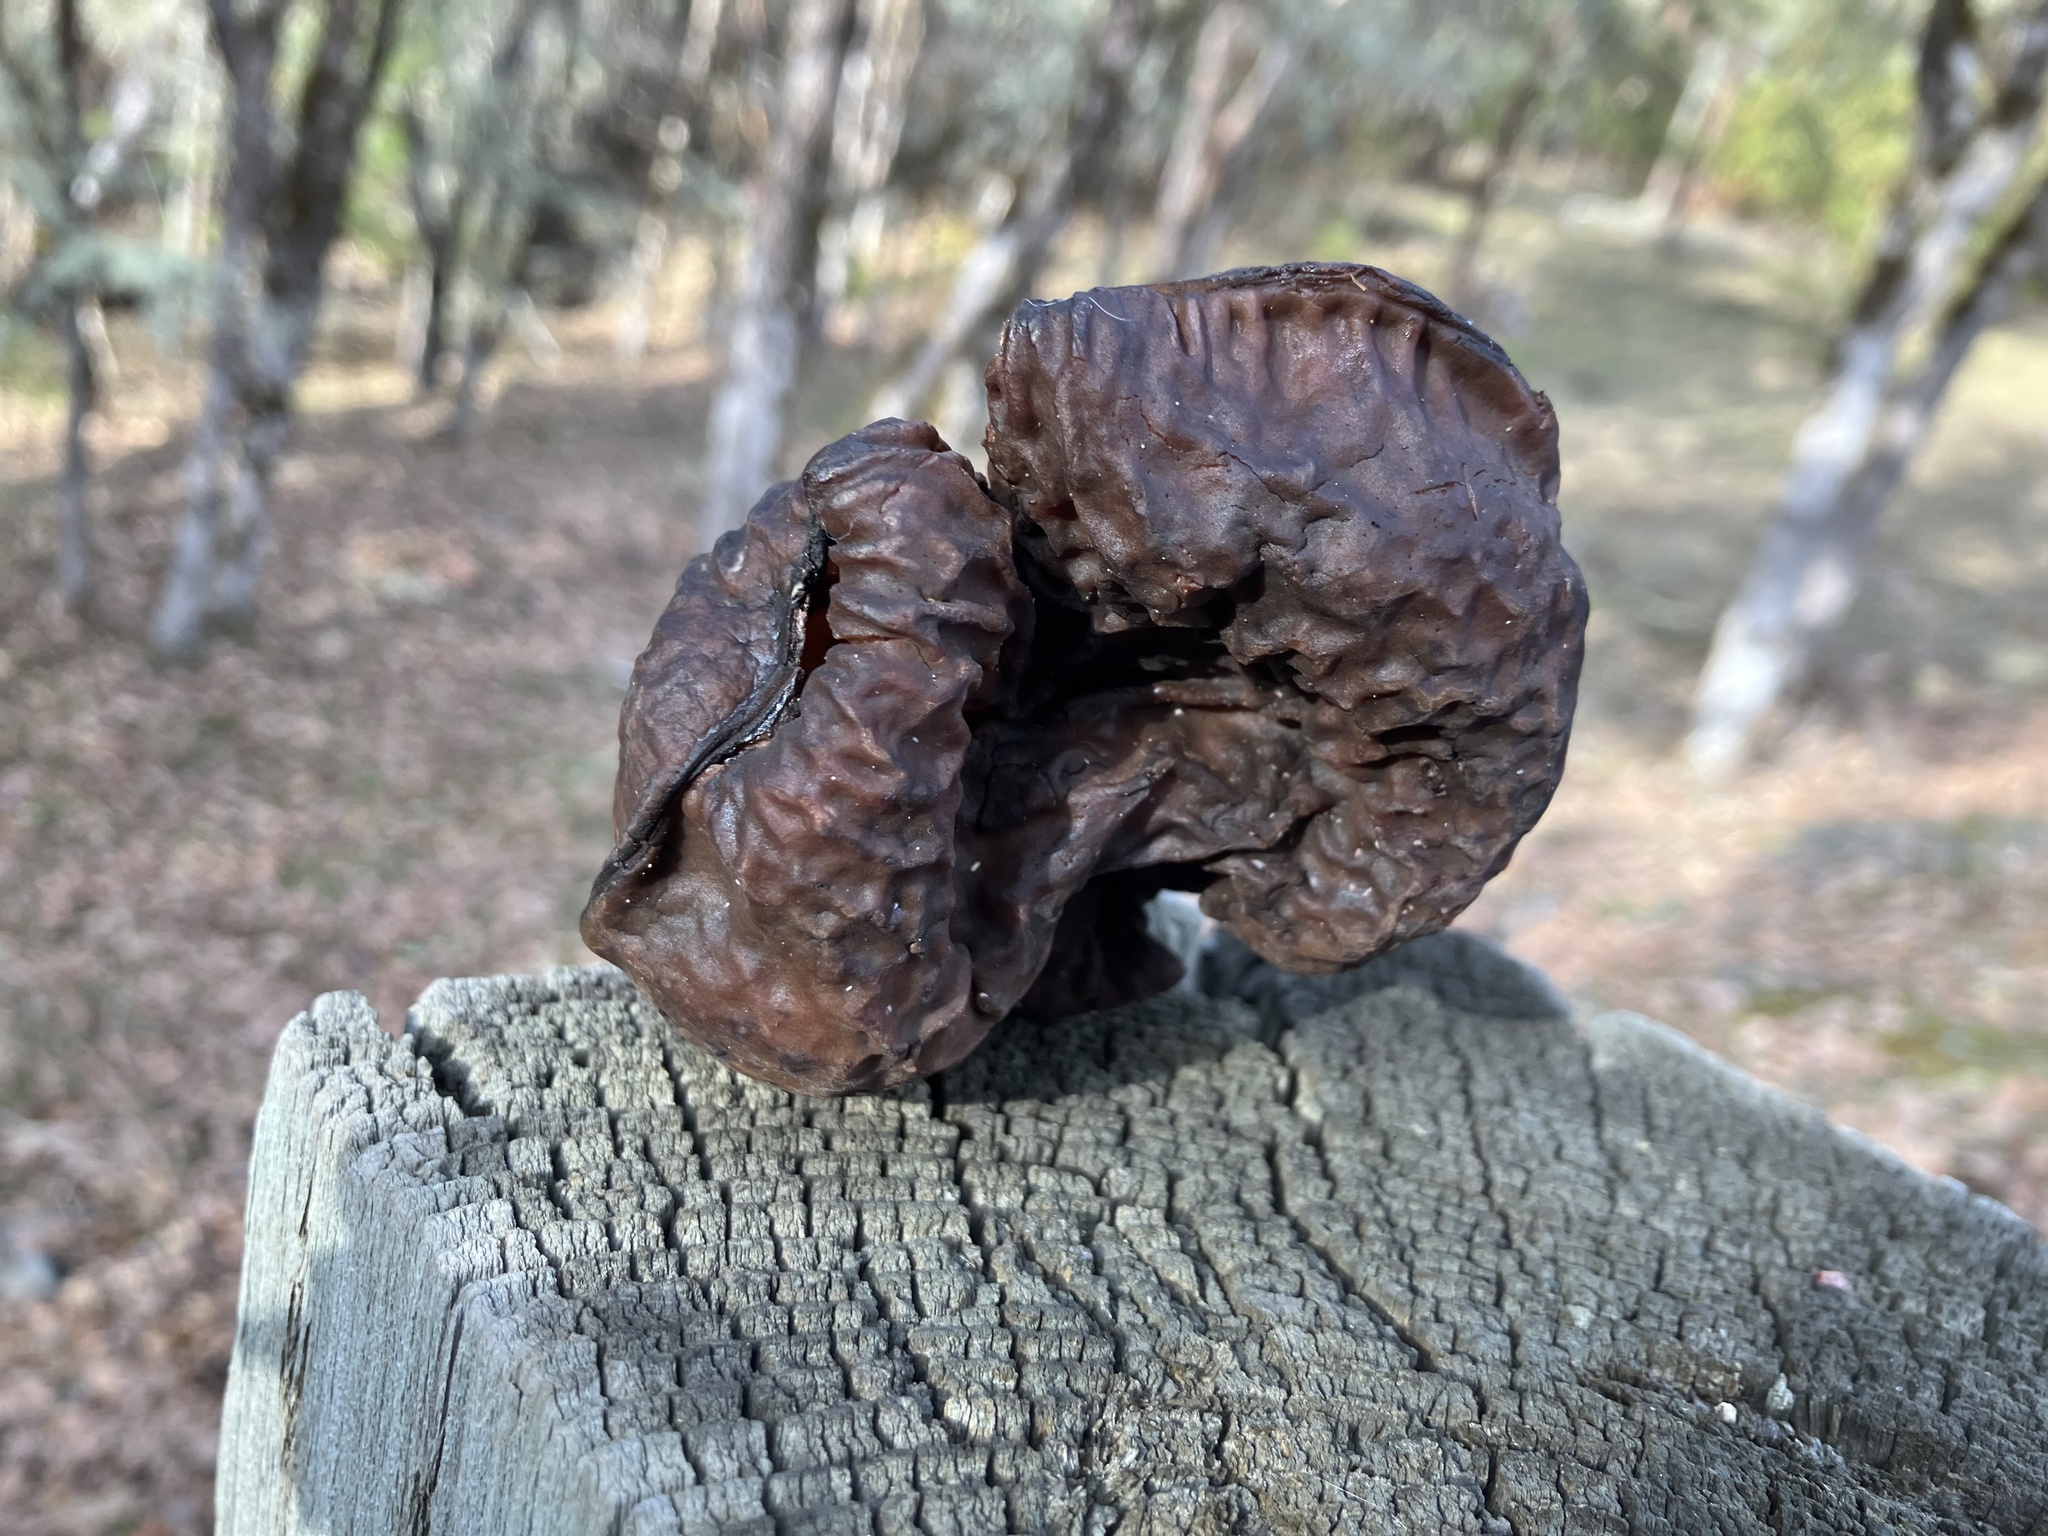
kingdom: Fungi
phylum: Ascomycota
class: Pezizomycetes
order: Pezizales
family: Discinaceae
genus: Gyromitra
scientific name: Gyromitra infula
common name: Pouched false morel
